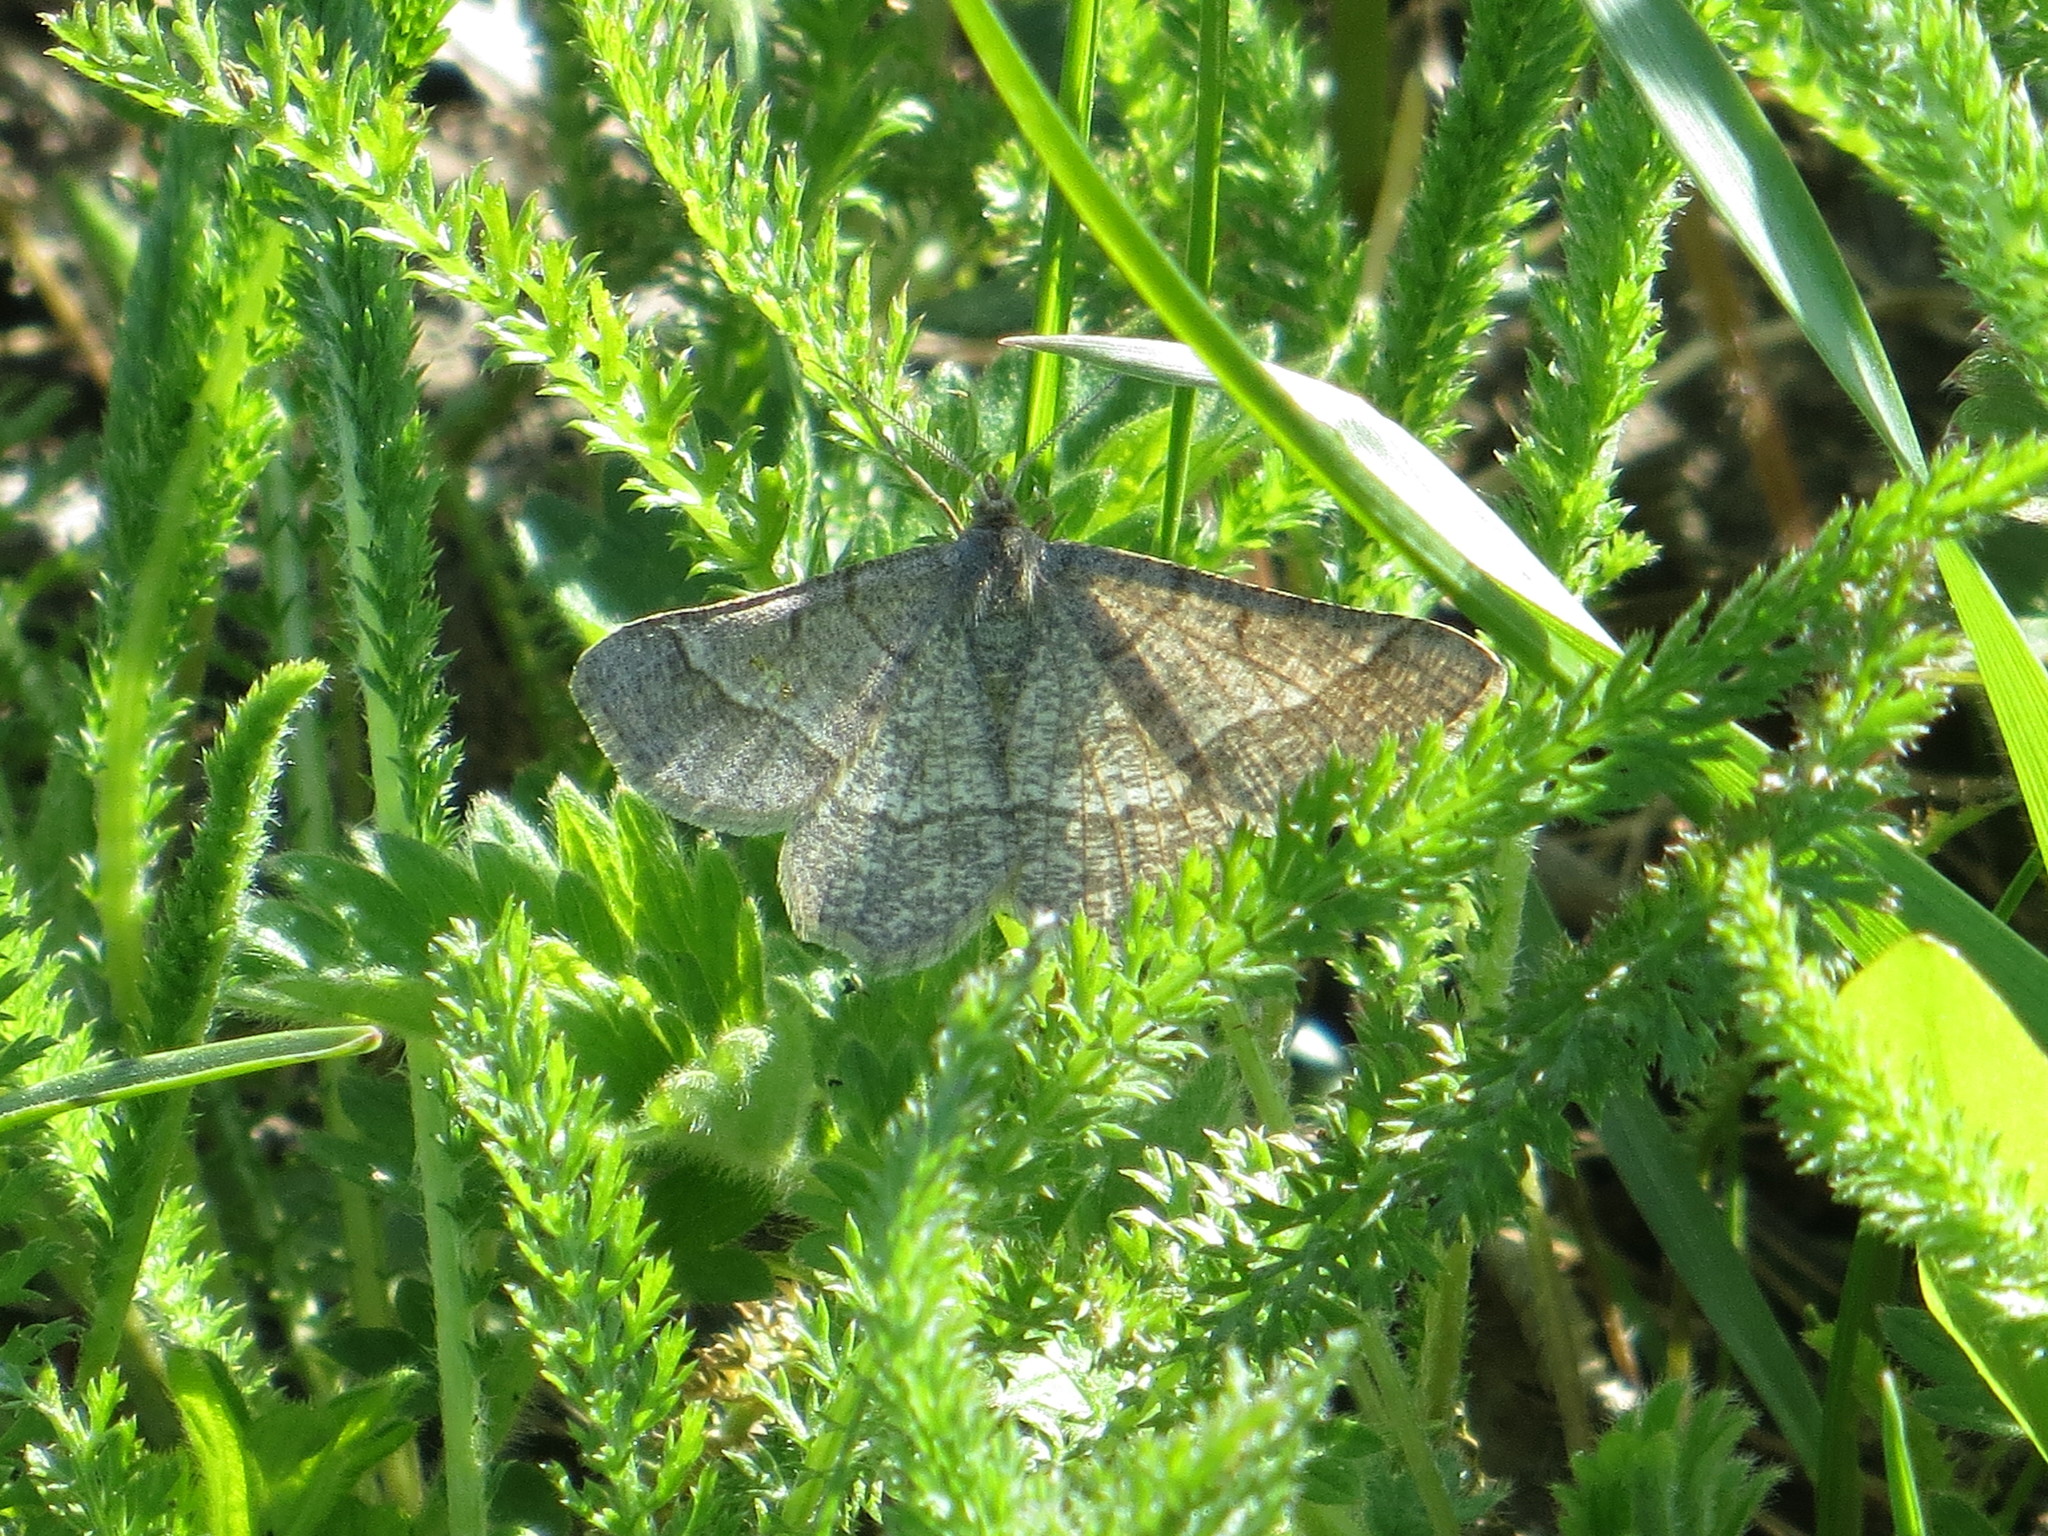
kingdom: Animalia
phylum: Arthropoda
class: Insecta
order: Lepidoptera
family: Geometridae
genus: Tephrina
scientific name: Tephrina murinaria
